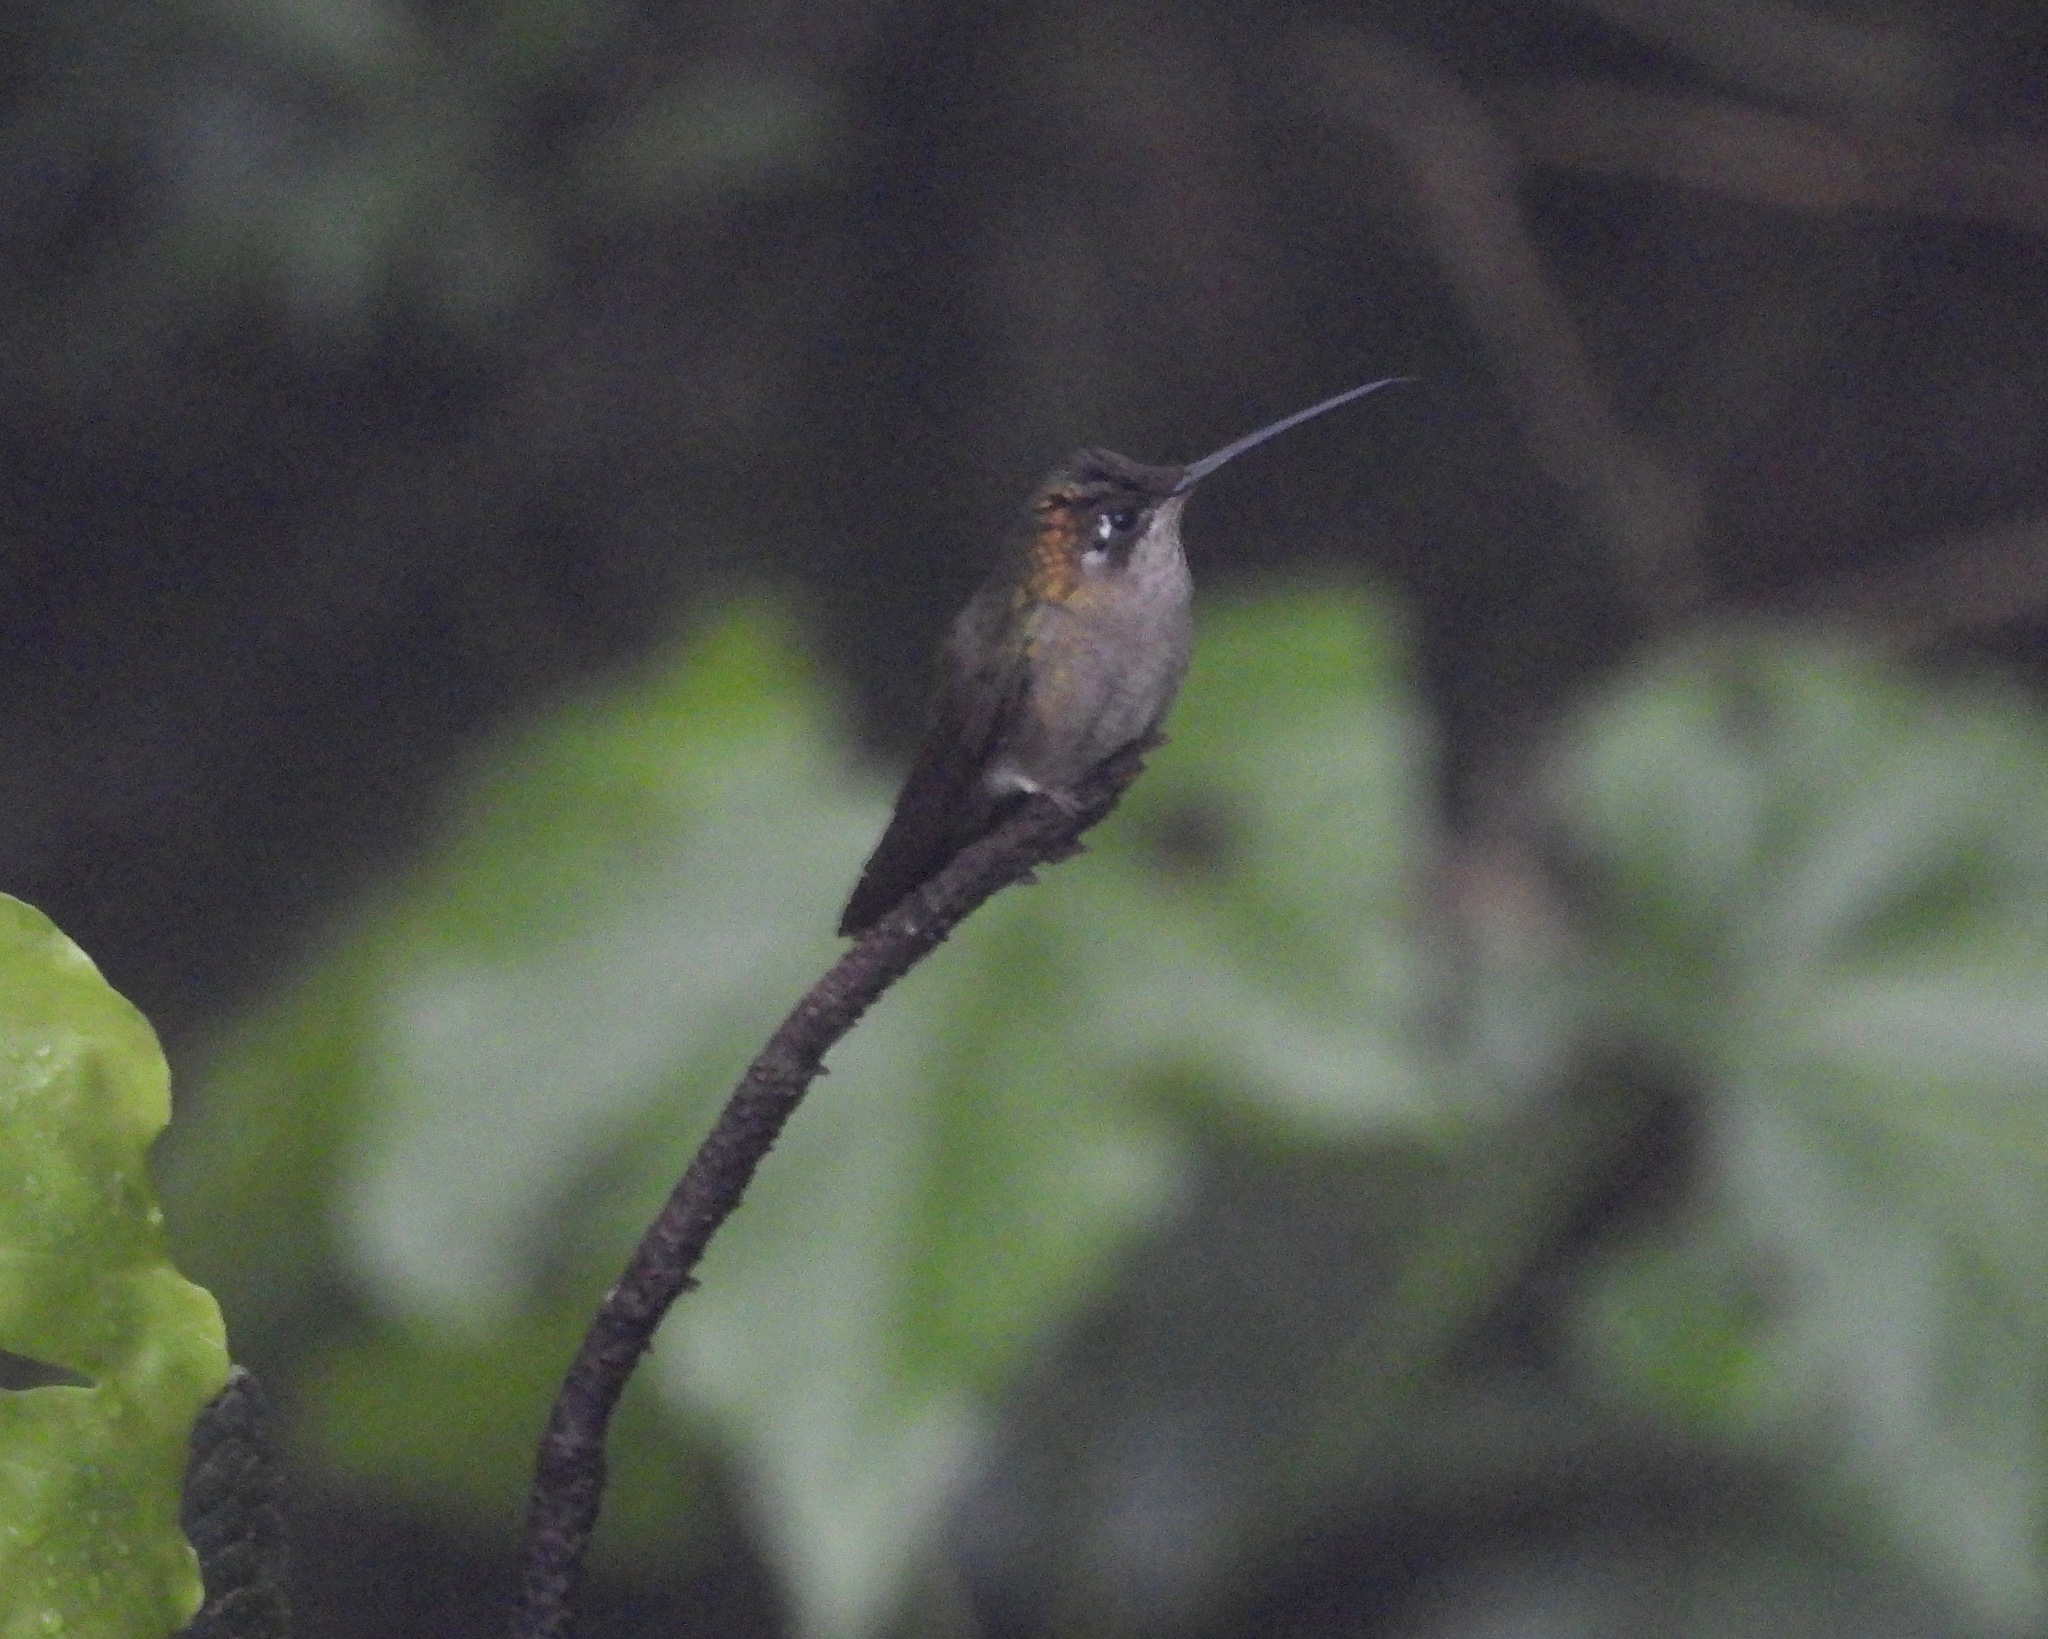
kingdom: Animalia
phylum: Chordata
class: Aves
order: Apodiformes
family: Trochilidae
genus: Eugenes
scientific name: Eugenes fulgens
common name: Magnificent hummingbird
